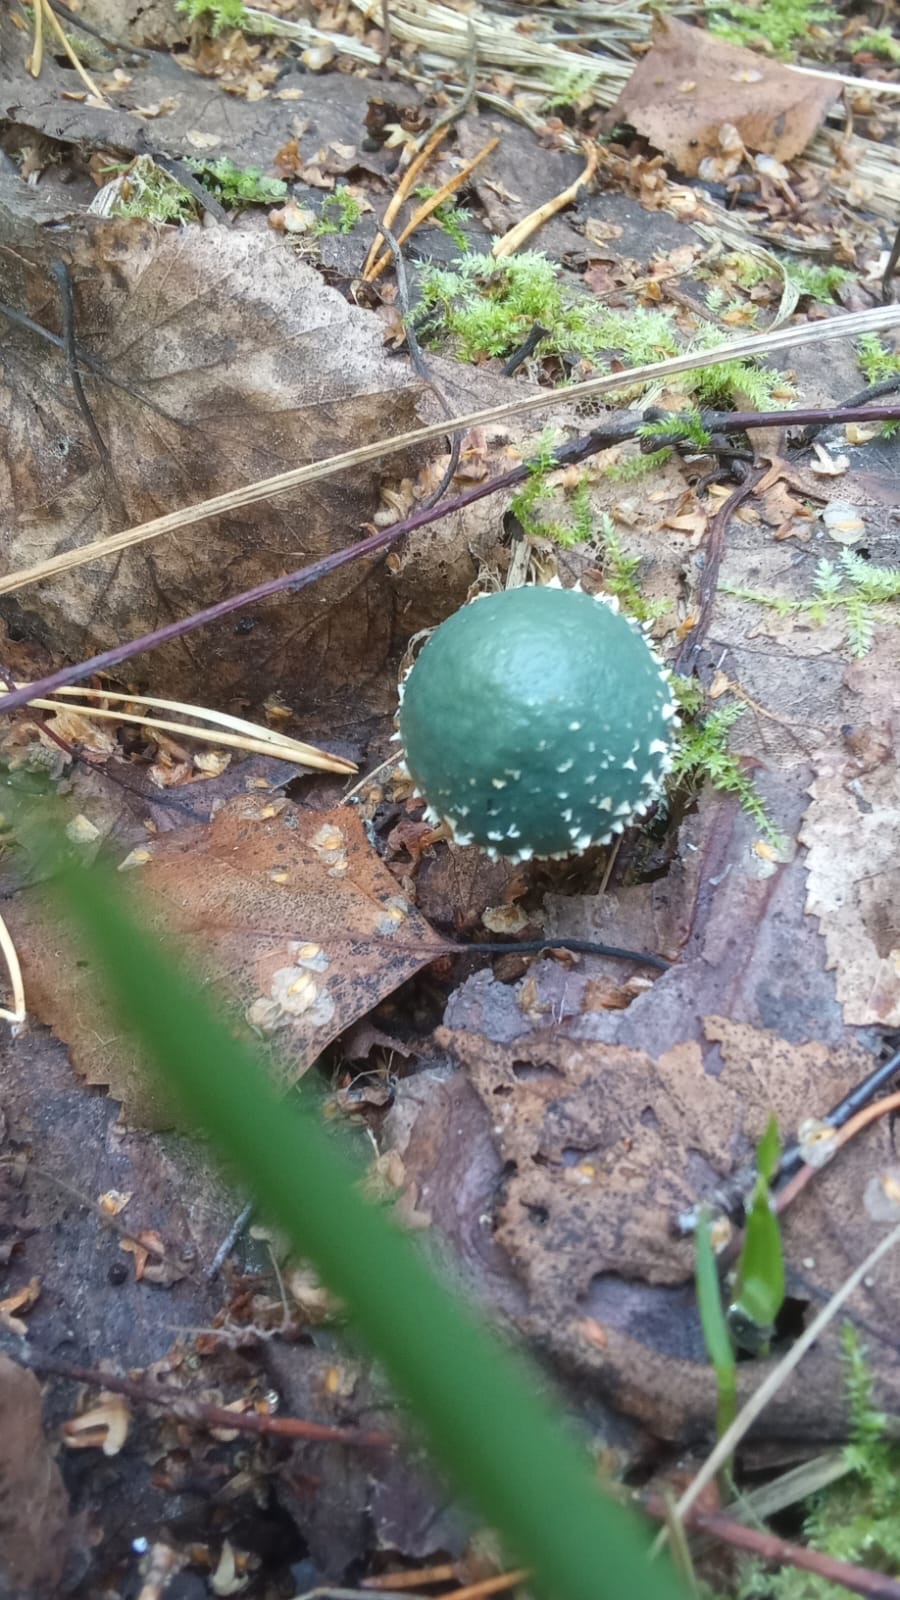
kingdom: Fungi
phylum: Basidiomycota
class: Agaricomycetes
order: Agaricales
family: Strophariaceae
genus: Stropharia
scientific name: Stropharia aeruginosa
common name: Verdigris roundhead
